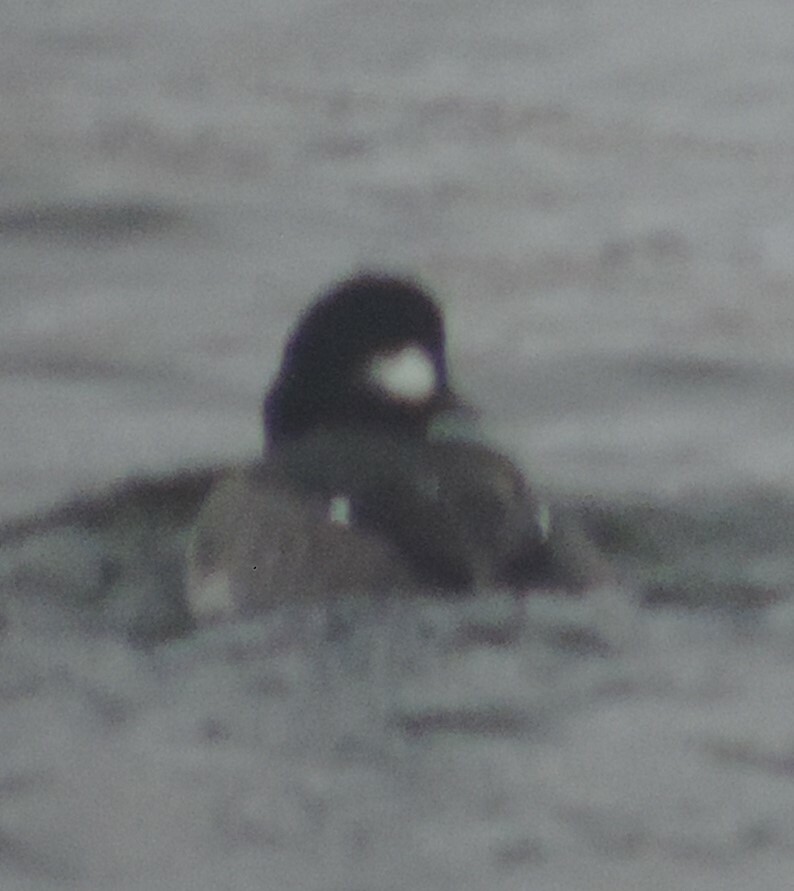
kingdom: Animalia
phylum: Chordata
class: Aves
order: Anseriformes
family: Anatidae
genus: Bucephala
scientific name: Bucephala albeola
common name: Bufflehead
